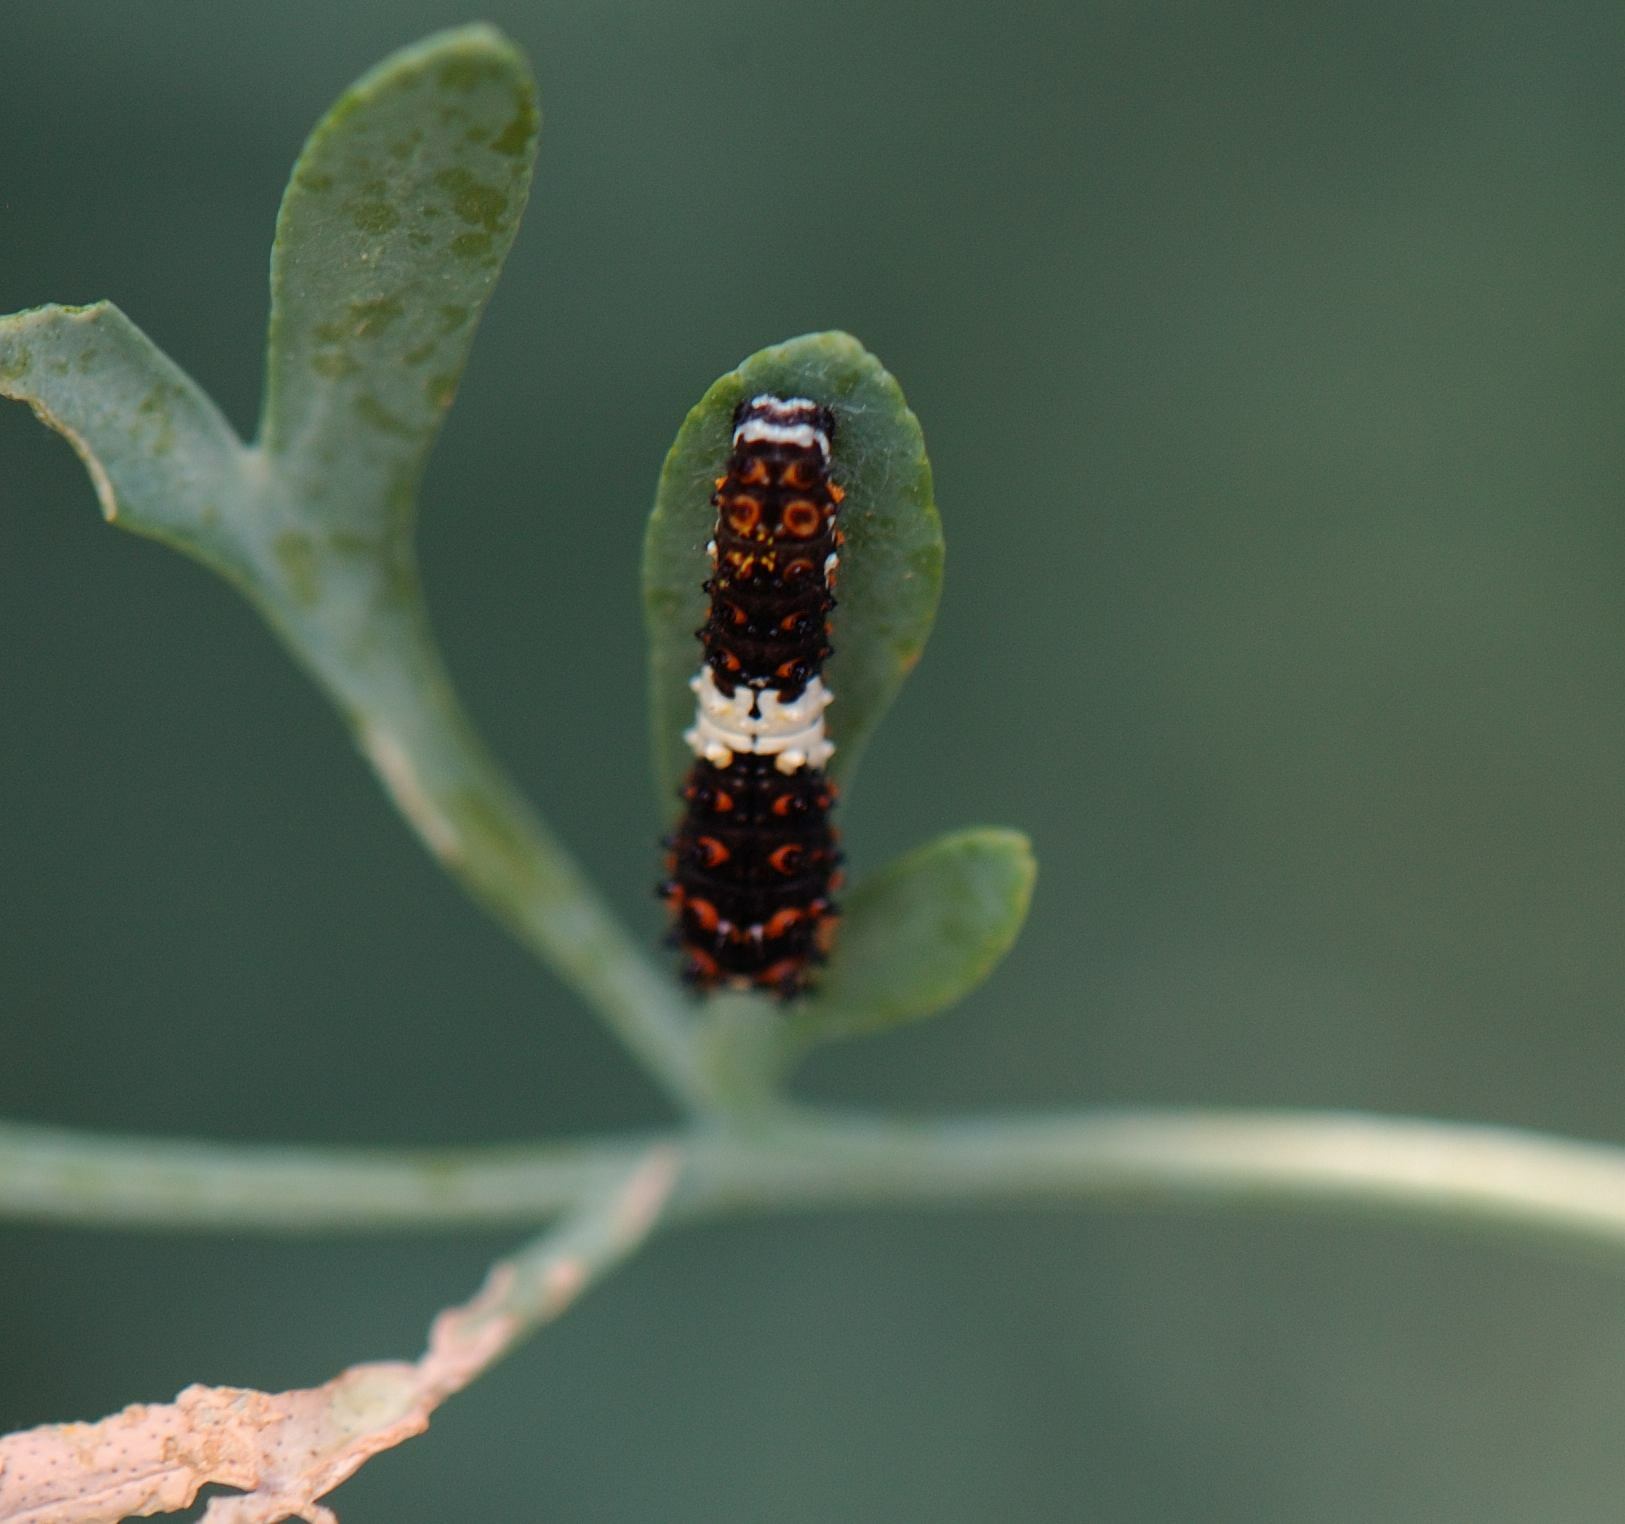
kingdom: Animalia
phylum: Arthropoda
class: Insecta
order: Lepidoptera
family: Papilionidae
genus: Papilio
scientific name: Papilio polyxenes
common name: Black swallowtail
